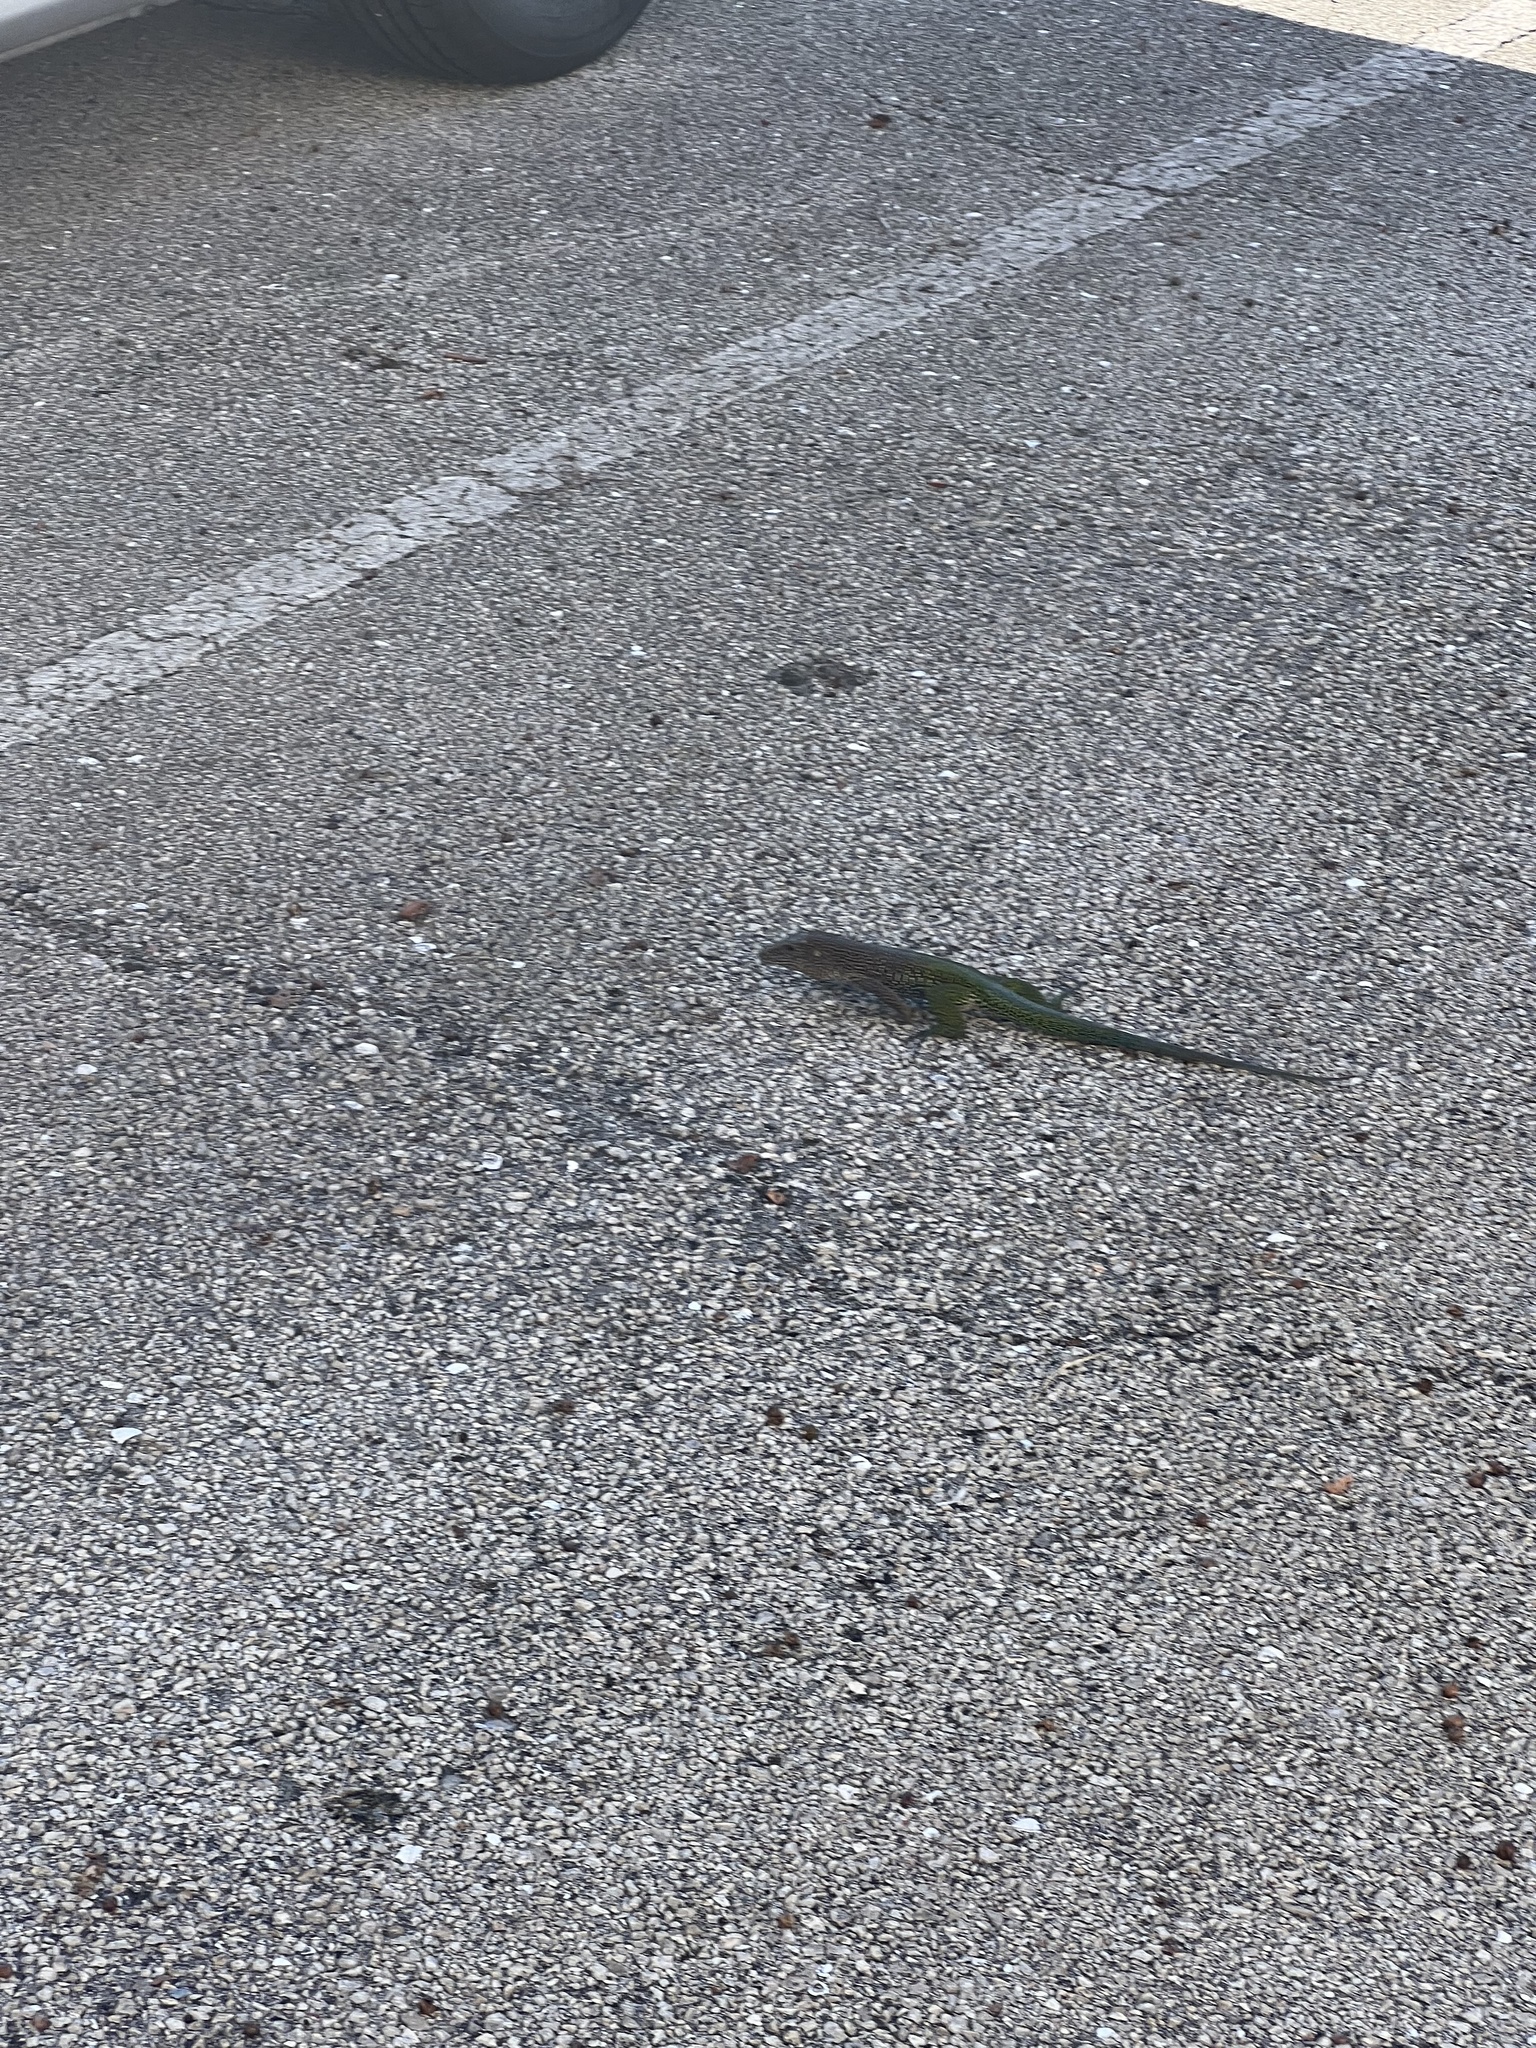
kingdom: Animalia
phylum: Chordata
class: Squamata
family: Teiidae
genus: Ameiva
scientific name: Ameiva ameiva
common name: Giant ameiva
